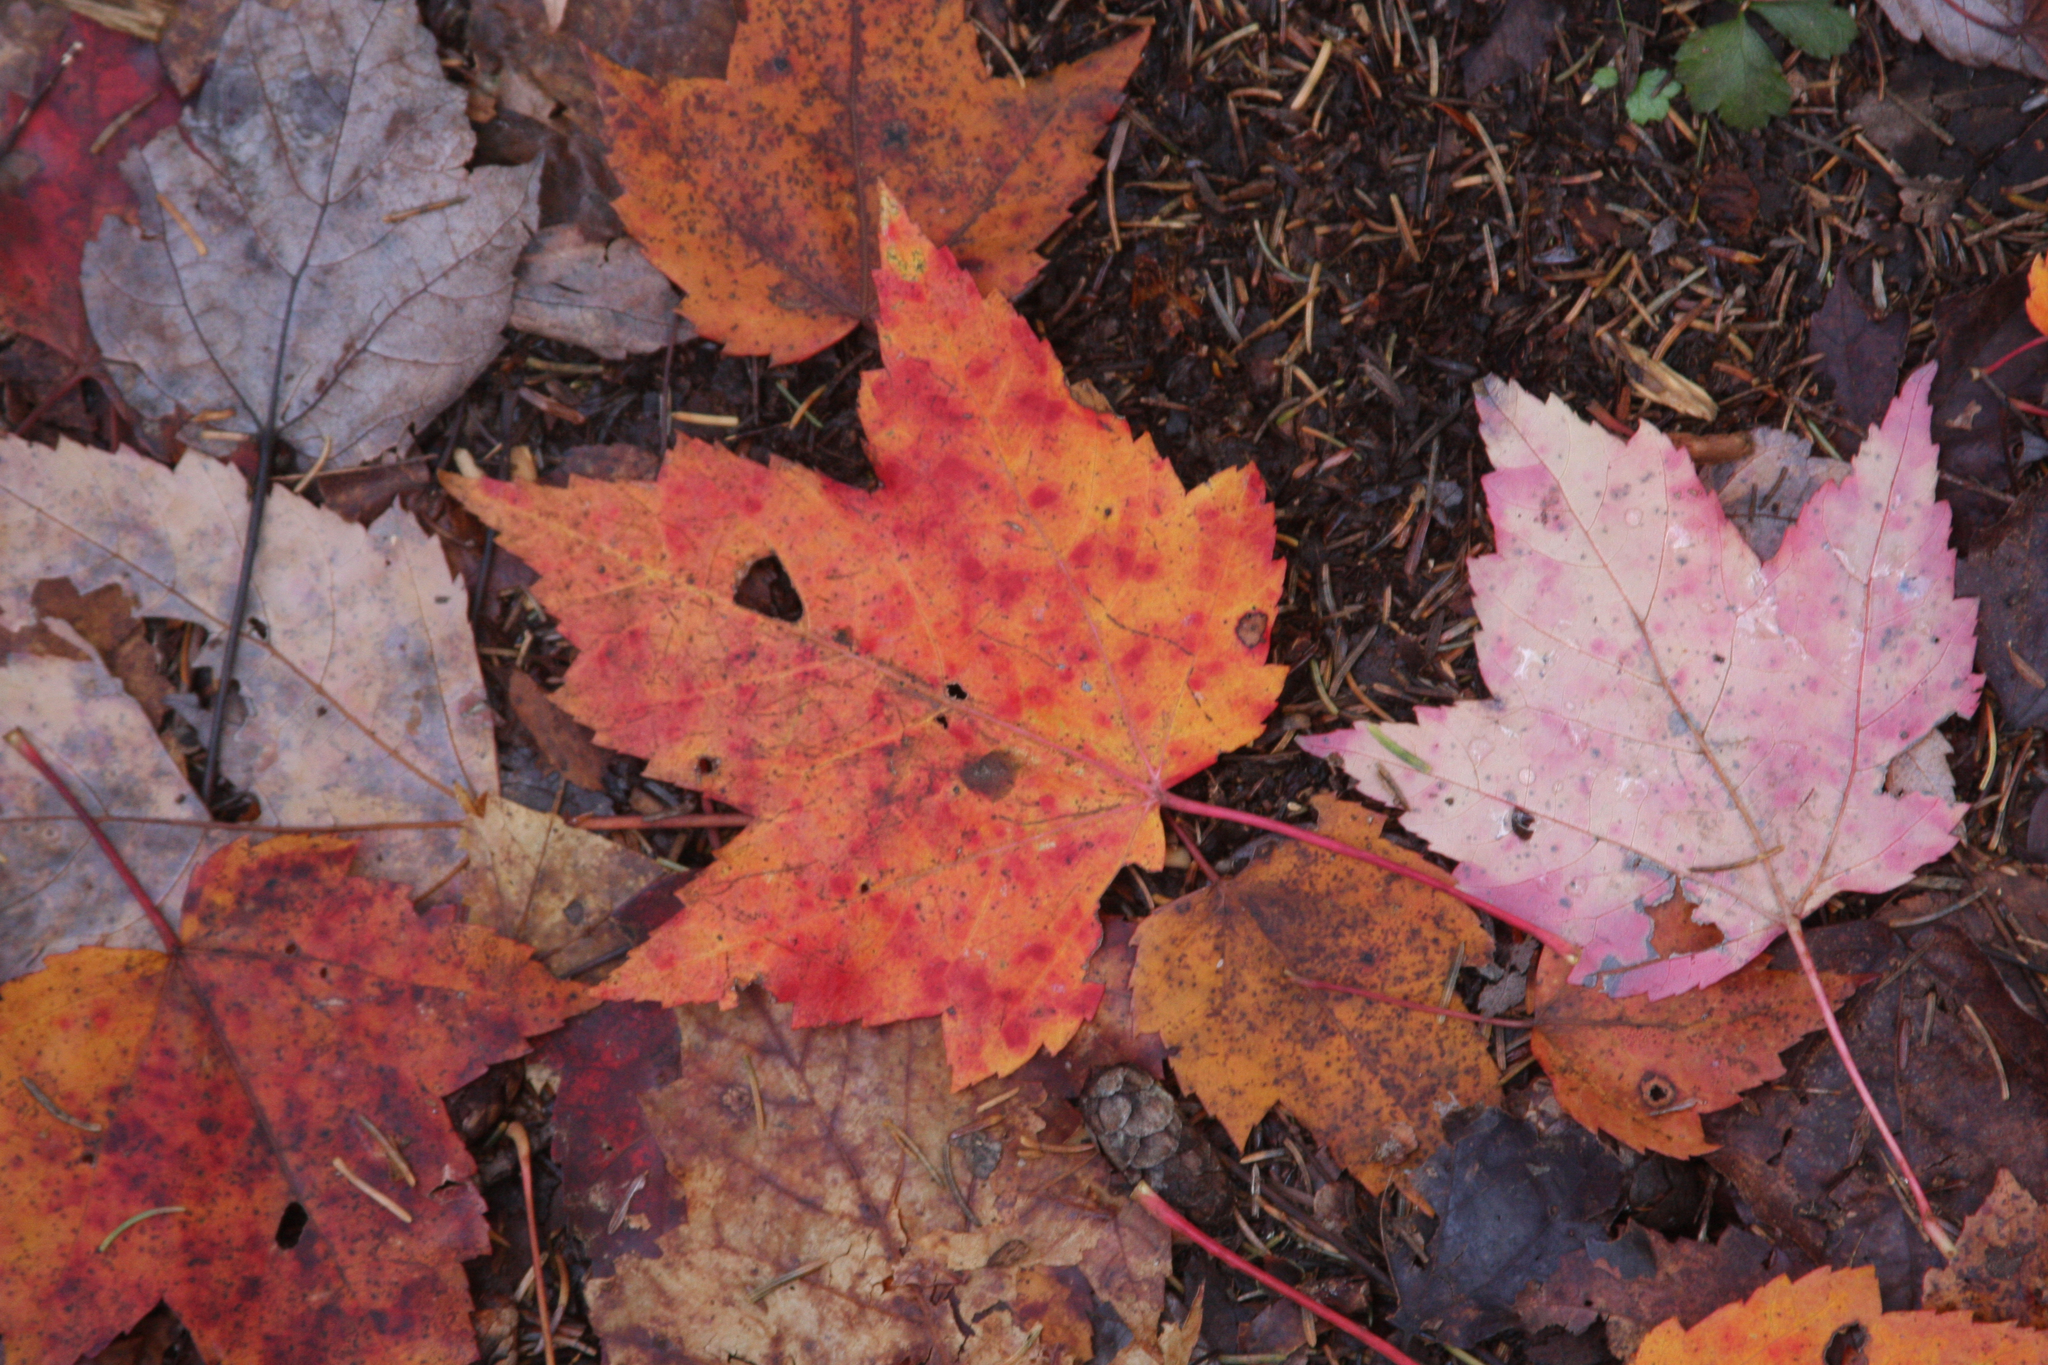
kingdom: Plantae
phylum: Tracheophyta
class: Magnoliopsida
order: Sapindales
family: Sapindaceae
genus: Acer
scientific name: Acer rubrum
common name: Red maple
